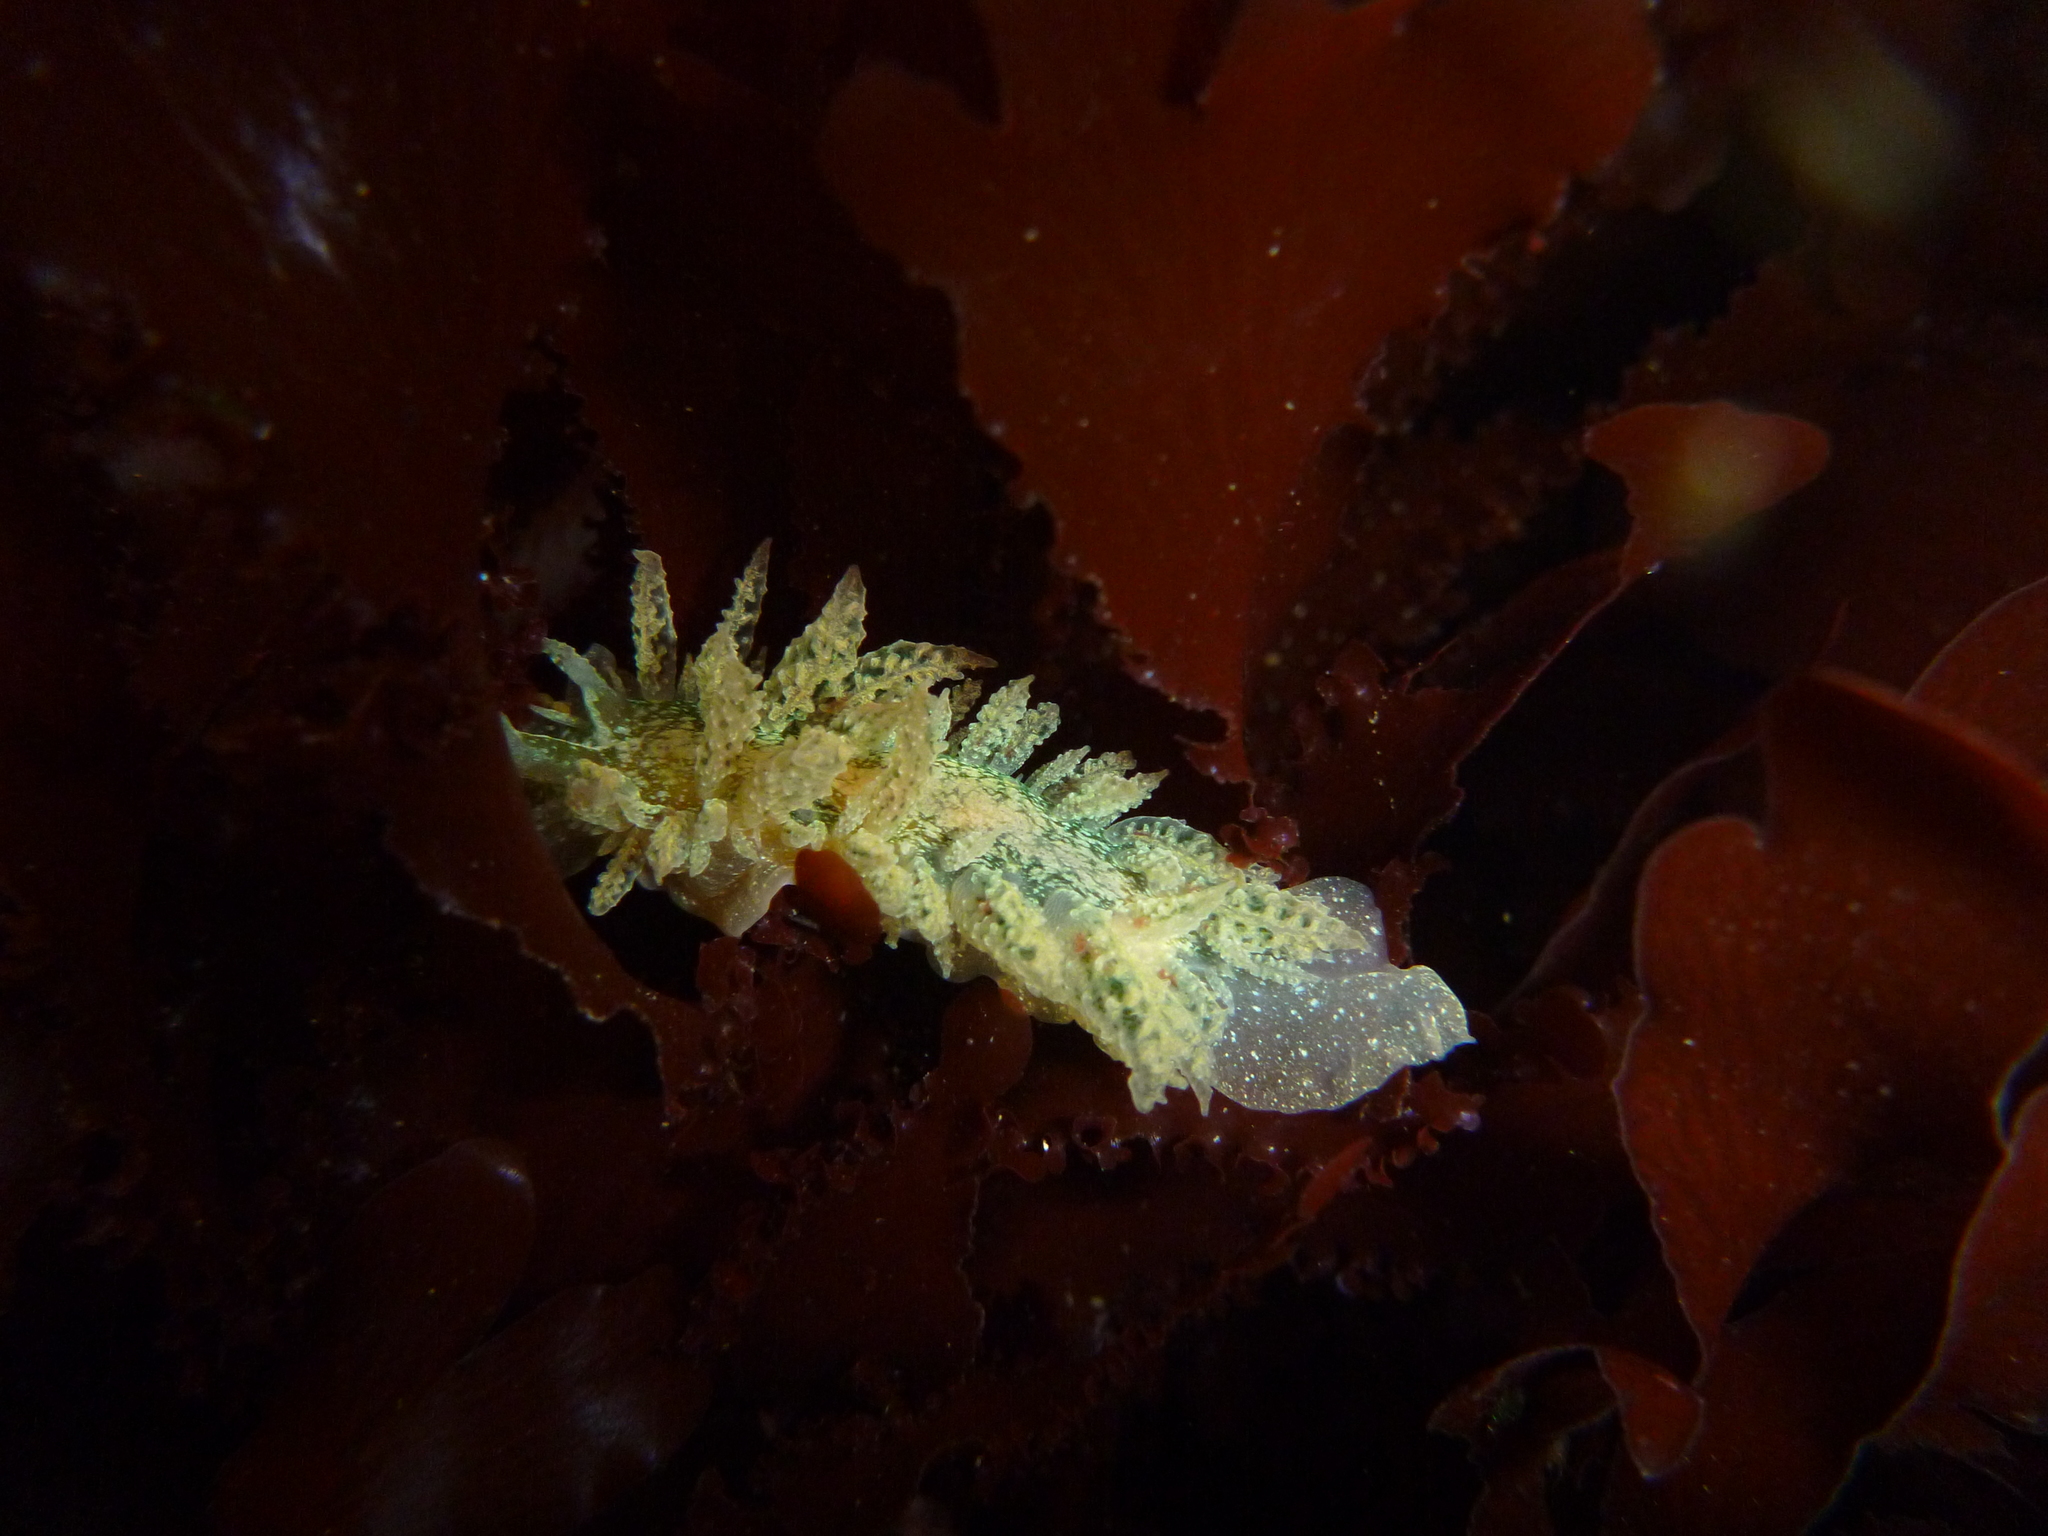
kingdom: Animalia
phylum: Mollusca
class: Gastropoda
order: Nudibranchia
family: Dironidae
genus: Dirona
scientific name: Dirona picta
